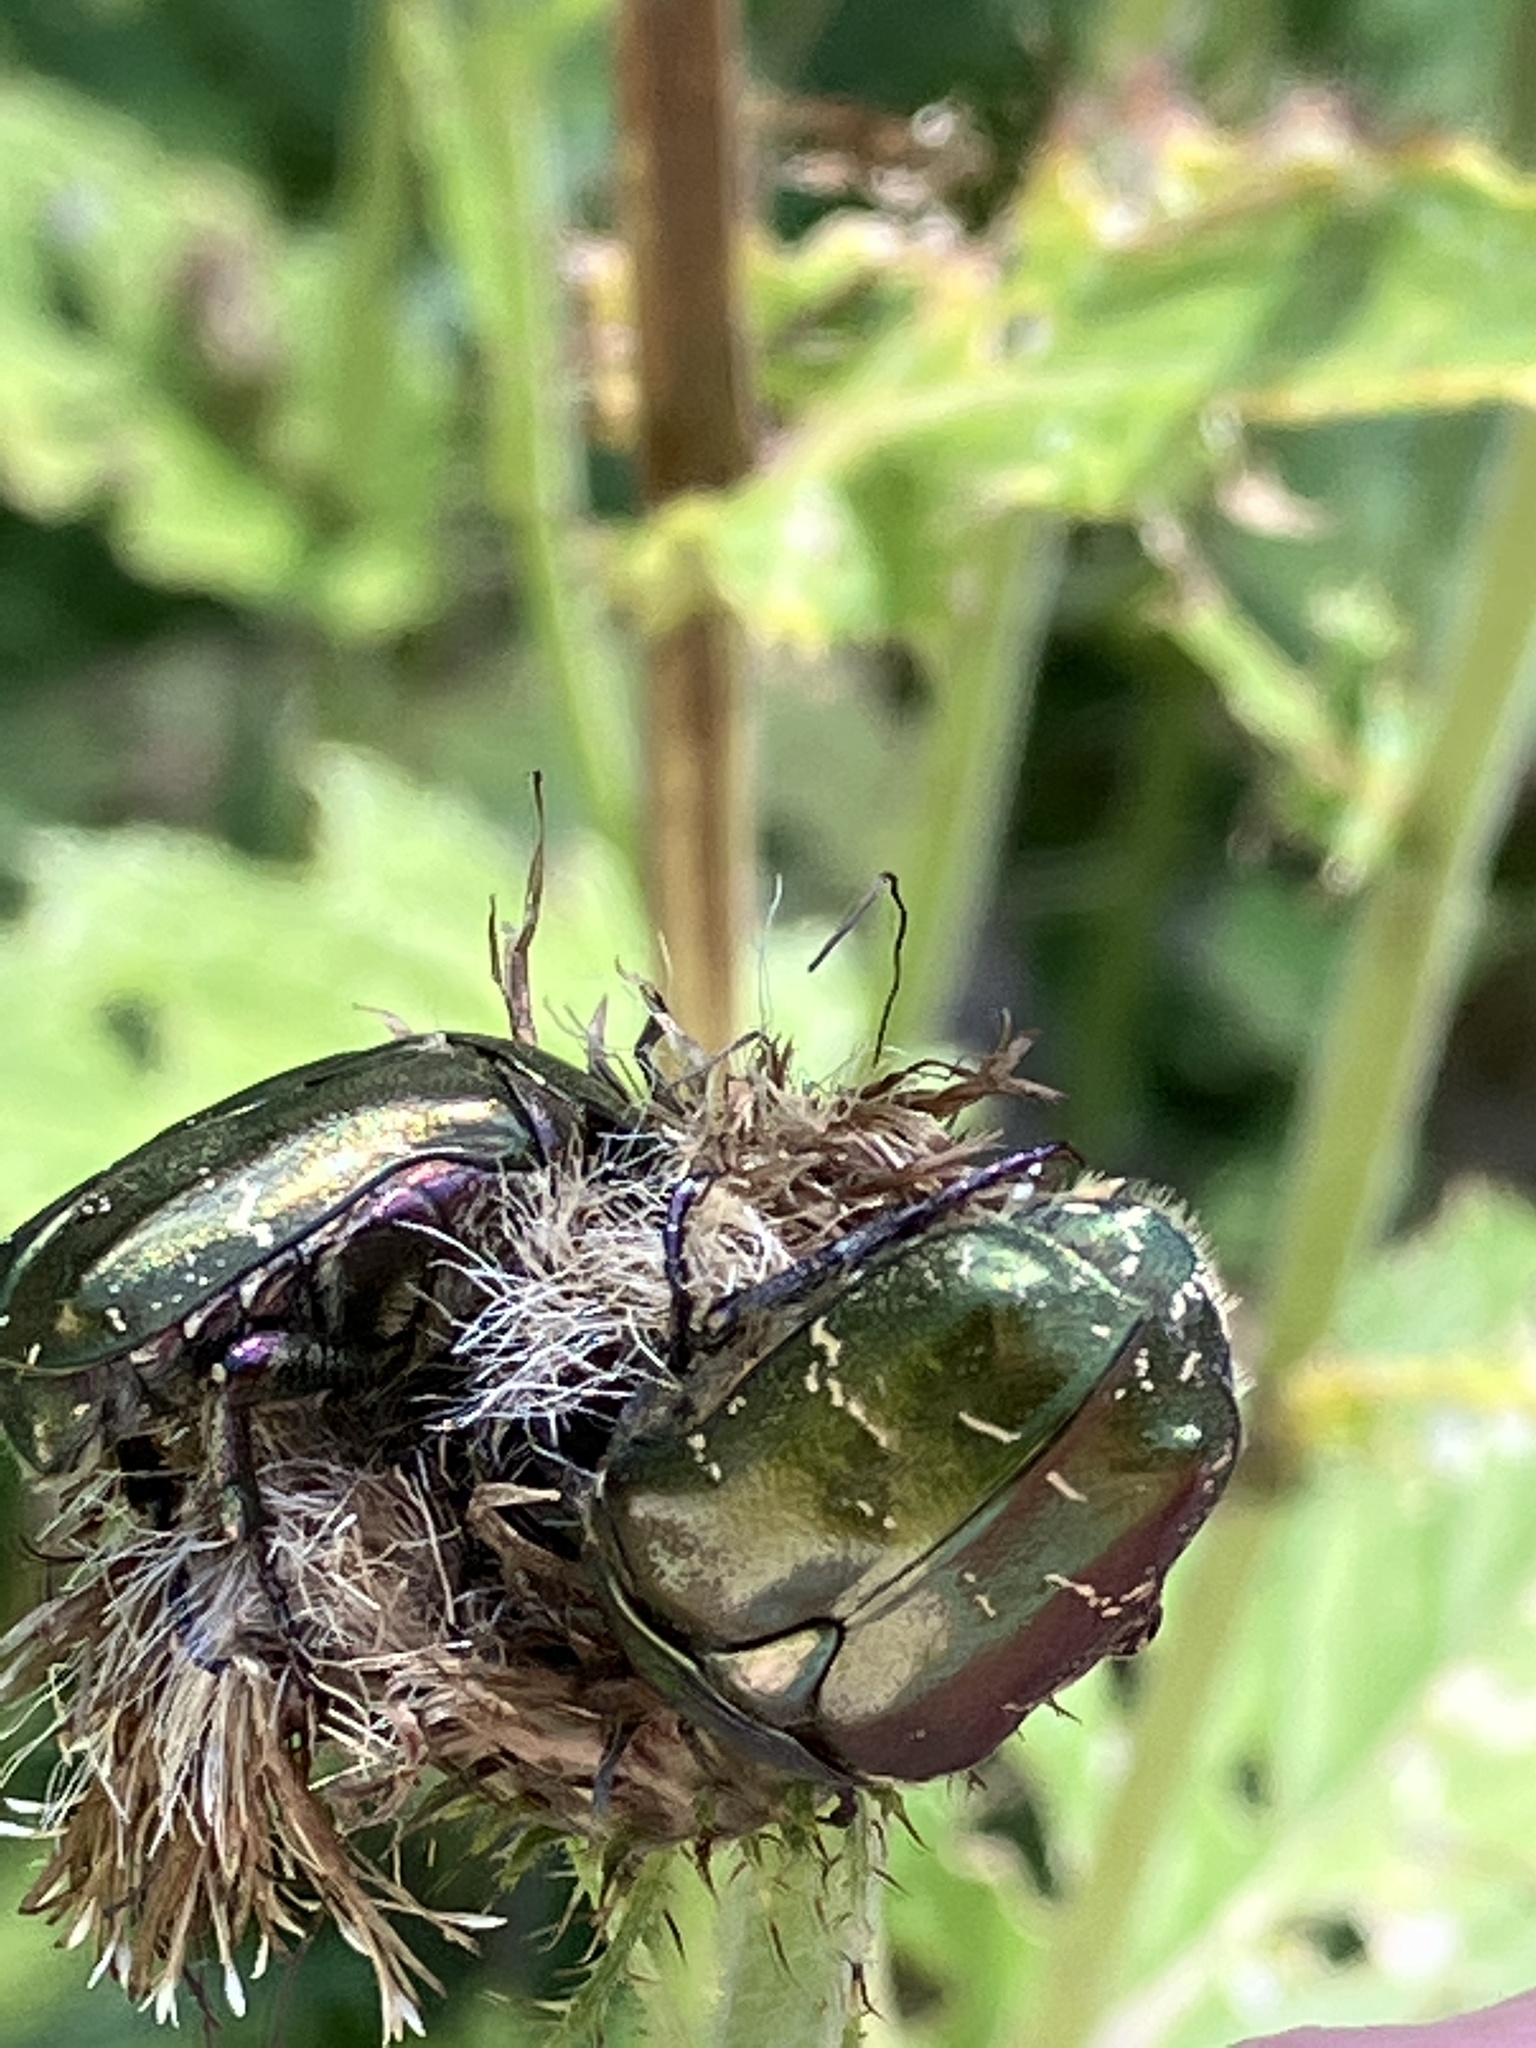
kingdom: Animalia
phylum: Arthropoda
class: Insecta
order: Coleoptera
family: Scarabaeidae
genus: Protaetia
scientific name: Protaetia cuprea
